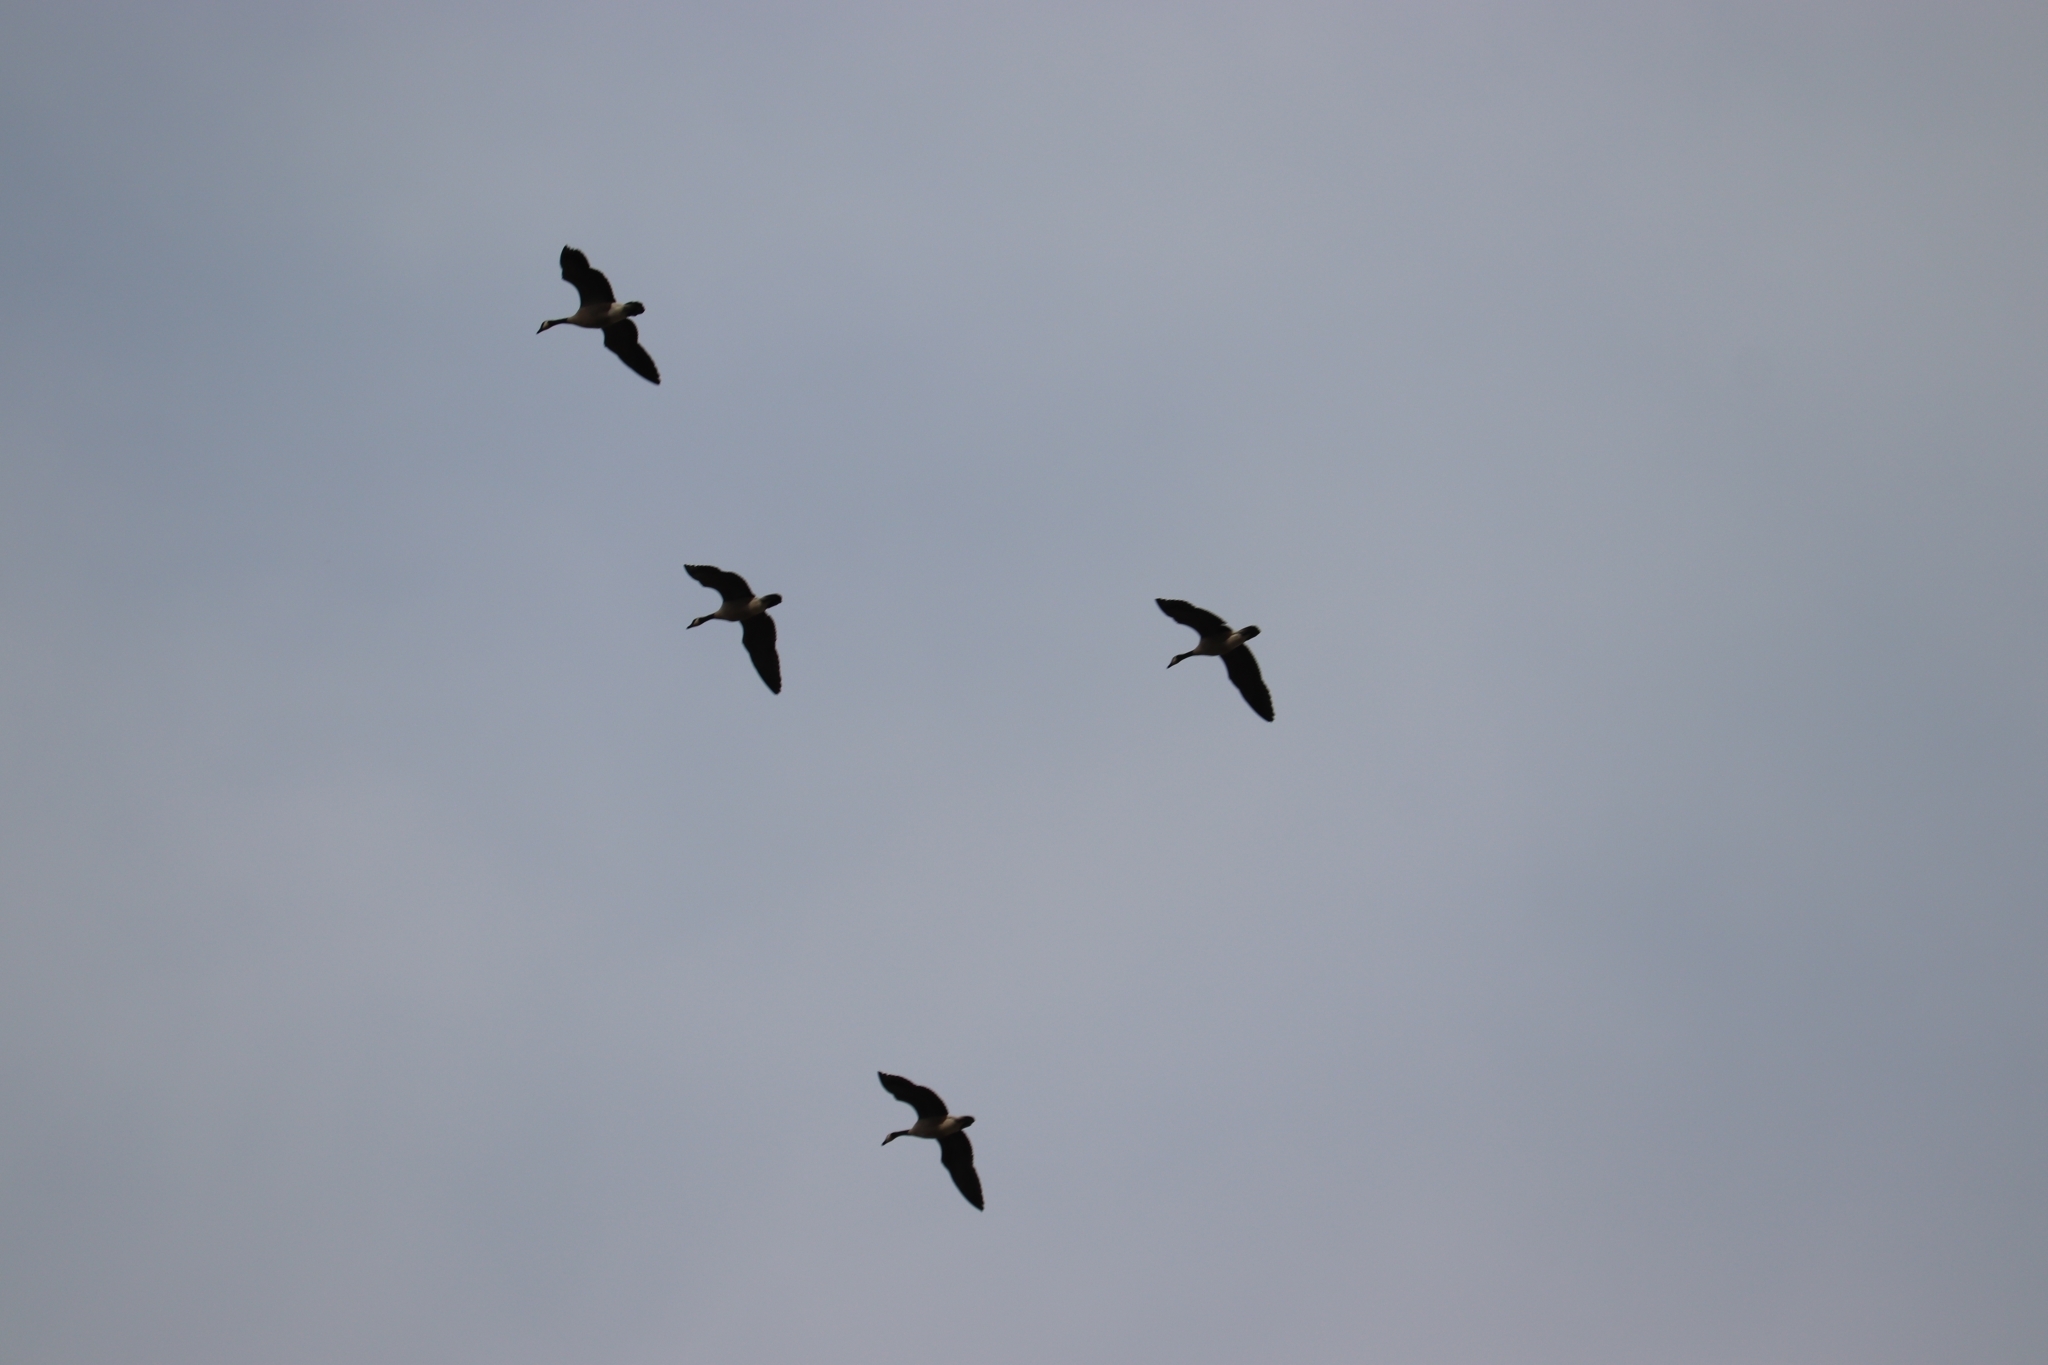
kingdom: Animalia
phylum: Chordata
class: Aves
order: Anseriformes
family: Anatidae
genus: Branta
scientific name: Branta canadensis
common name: Canada goose
